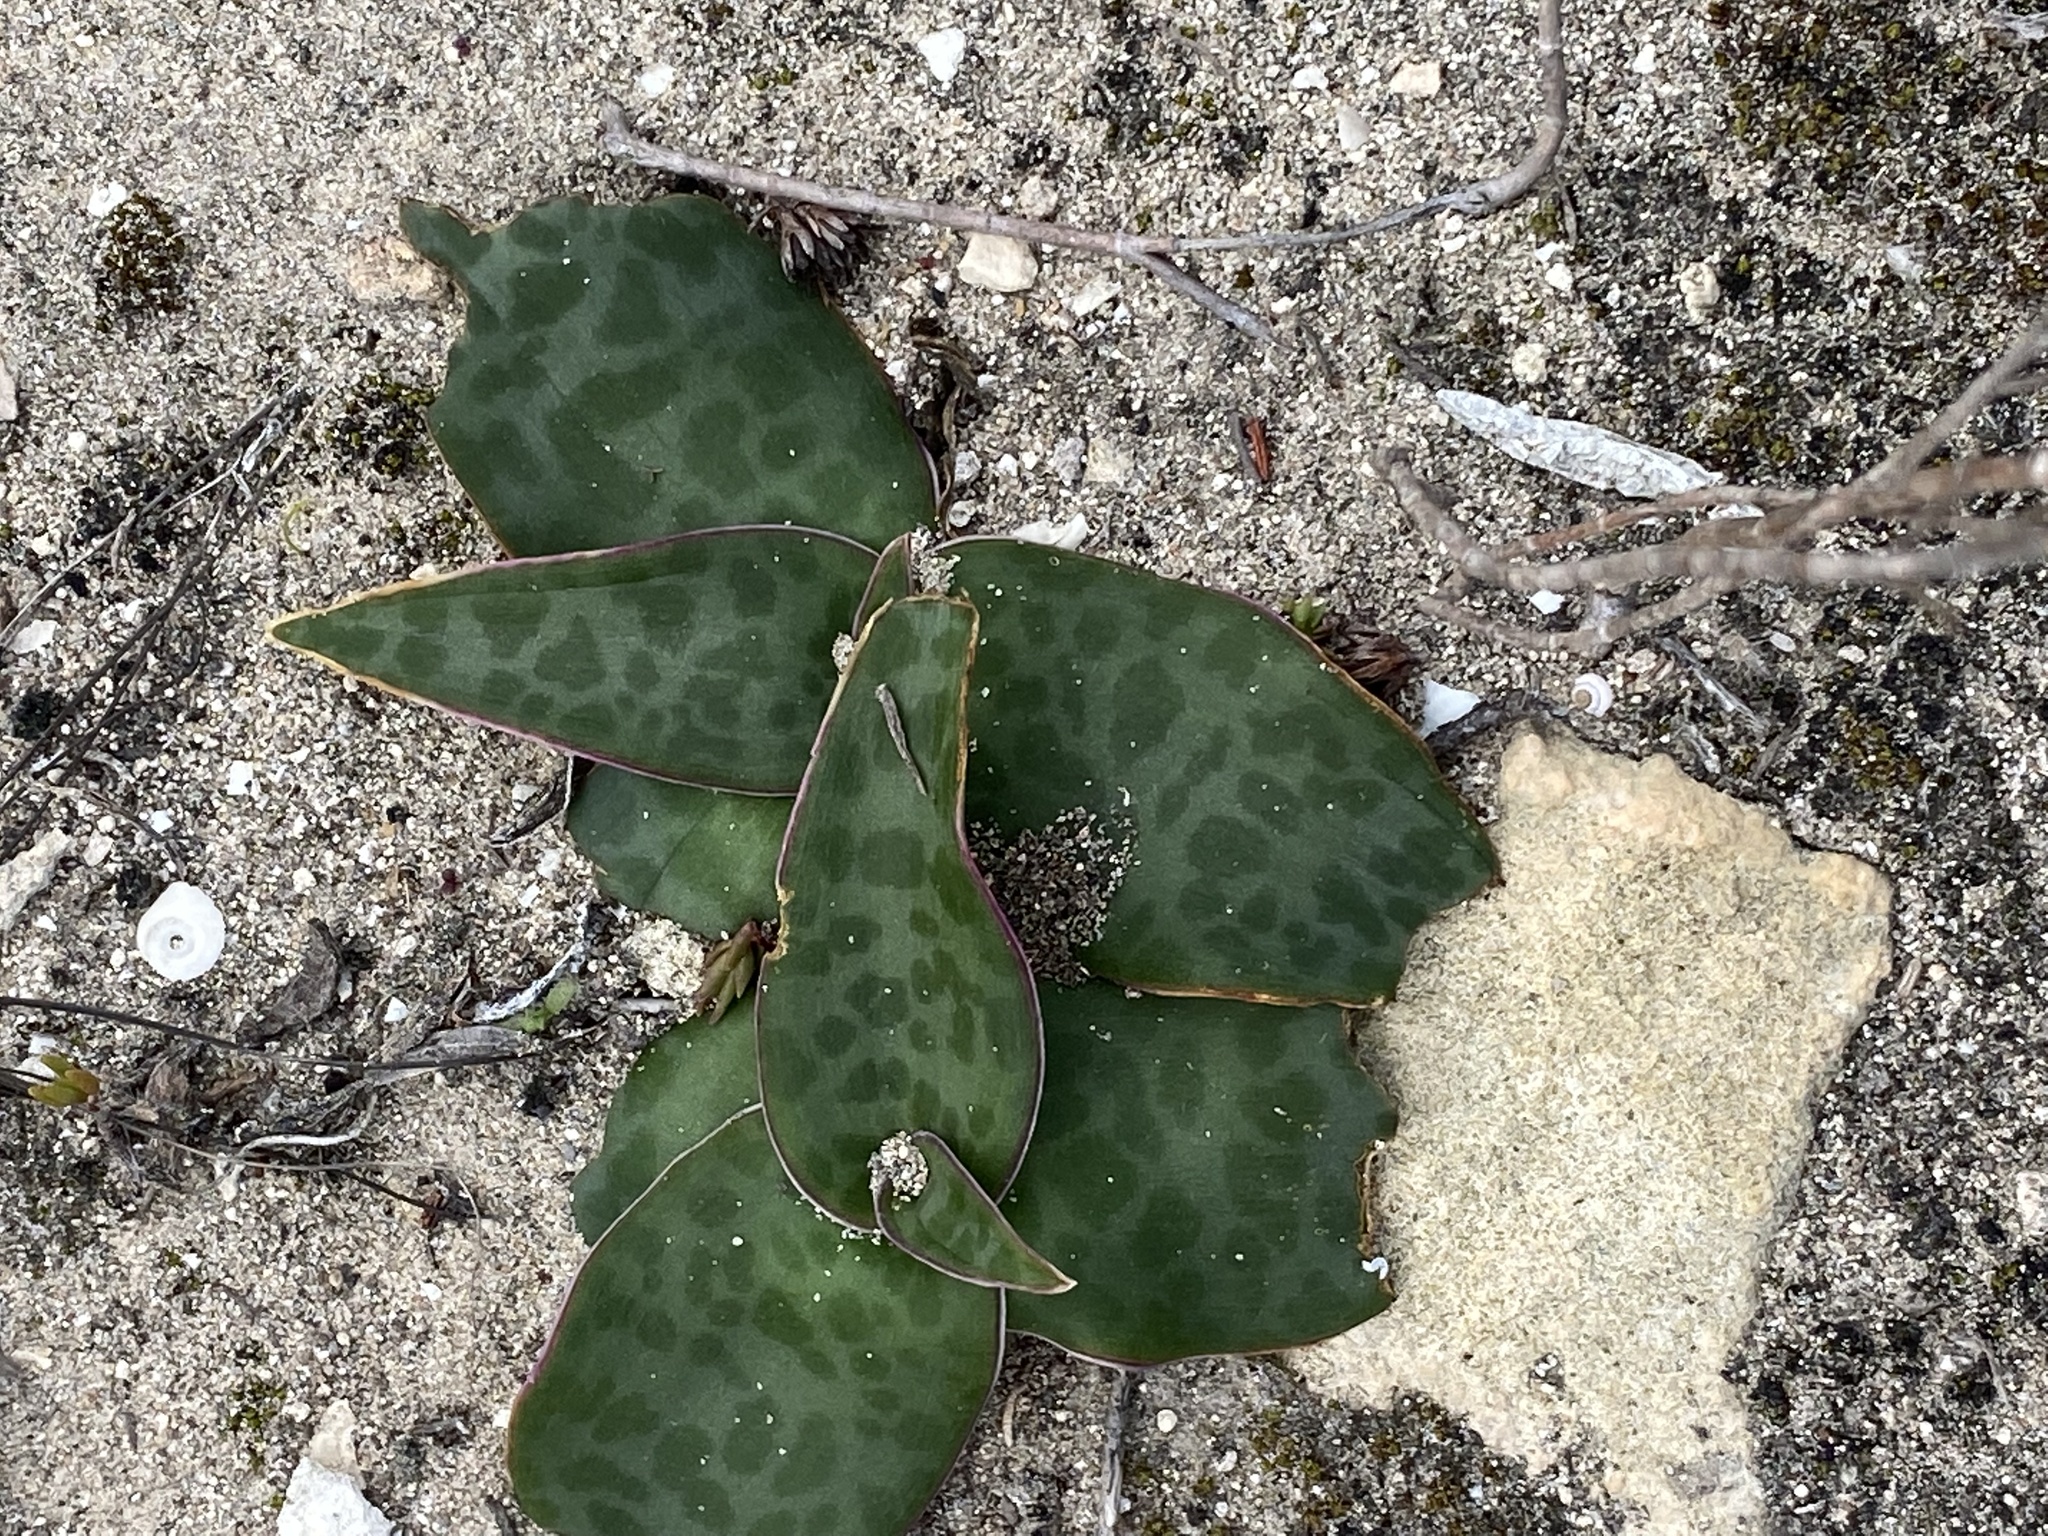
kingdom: Plantae
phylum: Tracheophyta
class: Liliopsida
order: Asparagales
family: Asparagaceae
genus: Ledebouria
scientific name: Ledebouria revoluta
